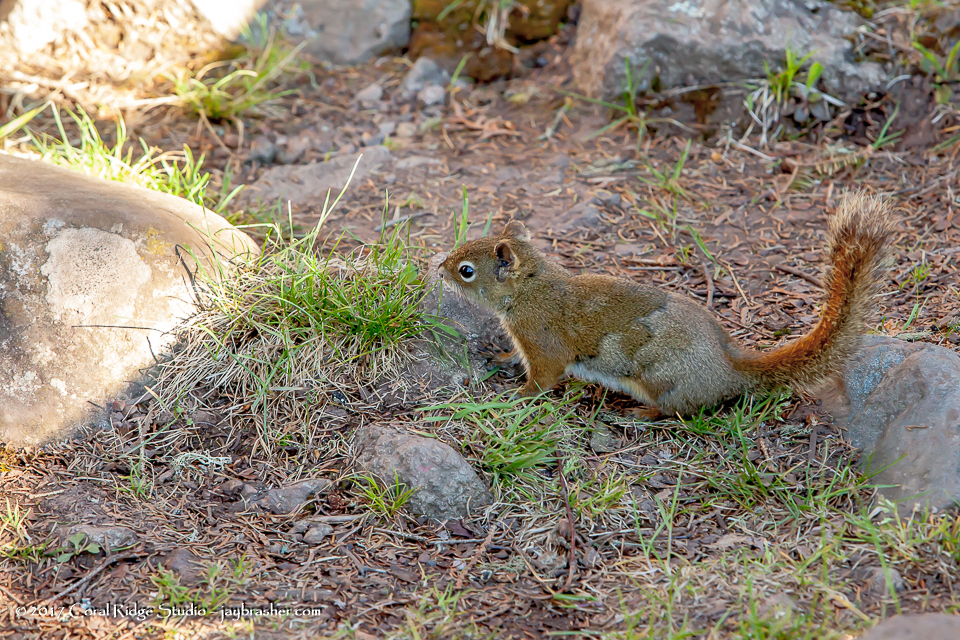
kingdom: Animalia
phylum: Chordata
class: Mammalia
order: Rodentia
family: Sciuridae
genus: Tamiasciurus
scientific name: Tamiasciurus hudsonicus
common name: Red squirrel
